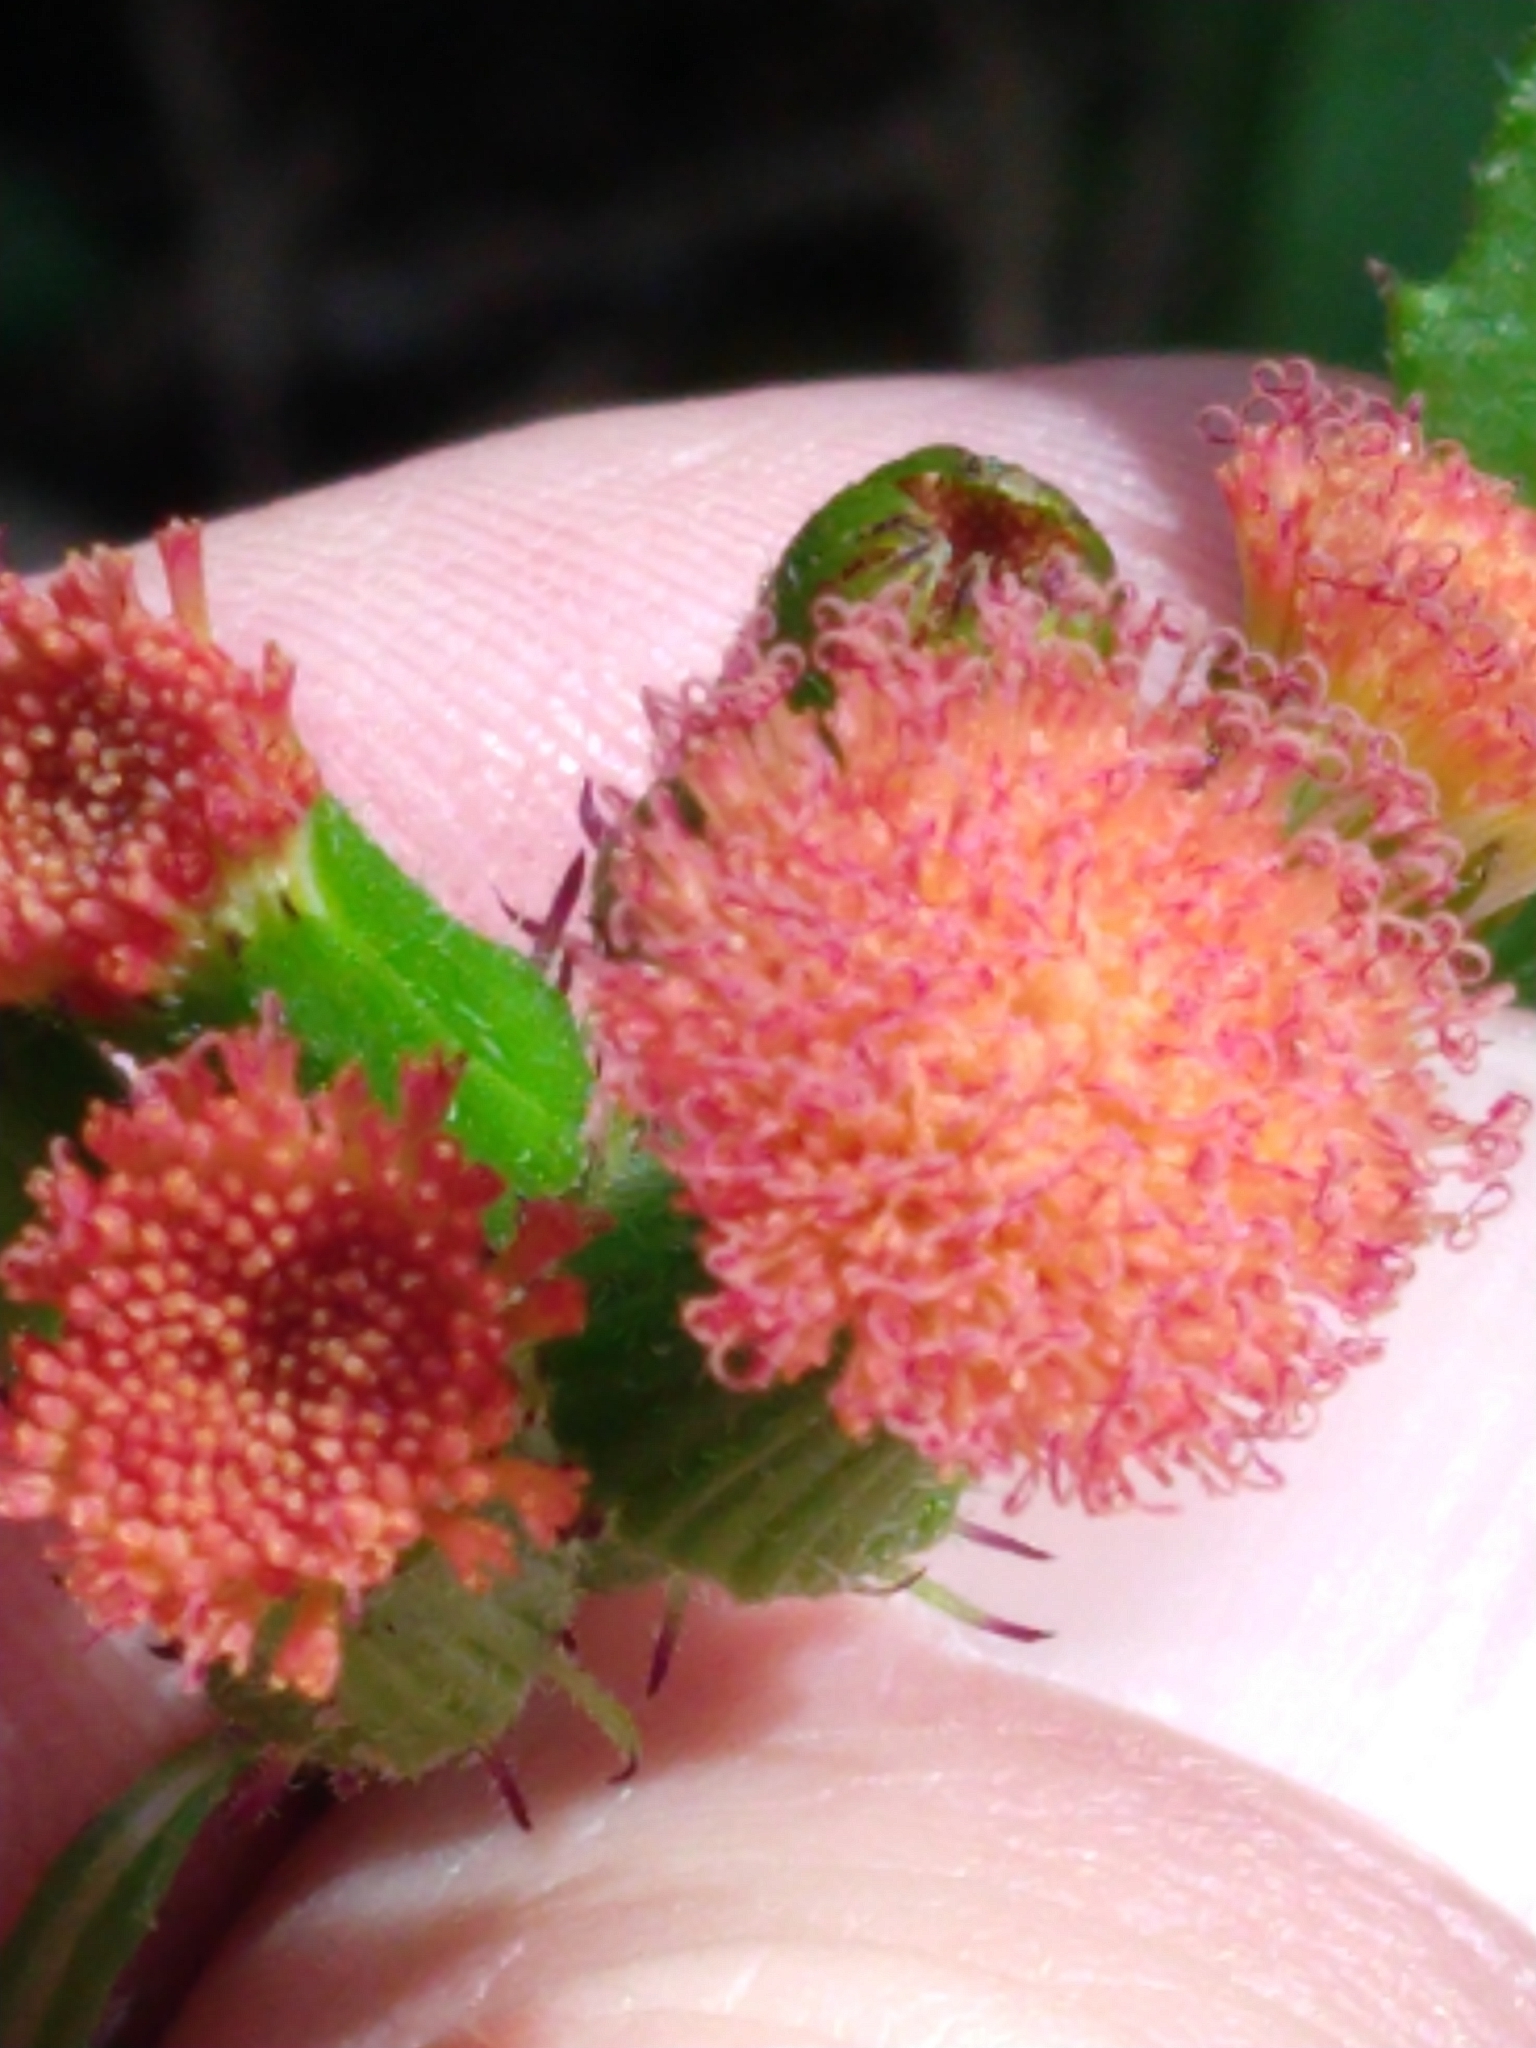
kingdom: Plantae
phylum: Tracheophyta
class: Magnoliopsida
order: Asterales
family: Asteraceae
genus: Emilia
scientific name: Emilia fosbergii
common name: Florida tasselflower
